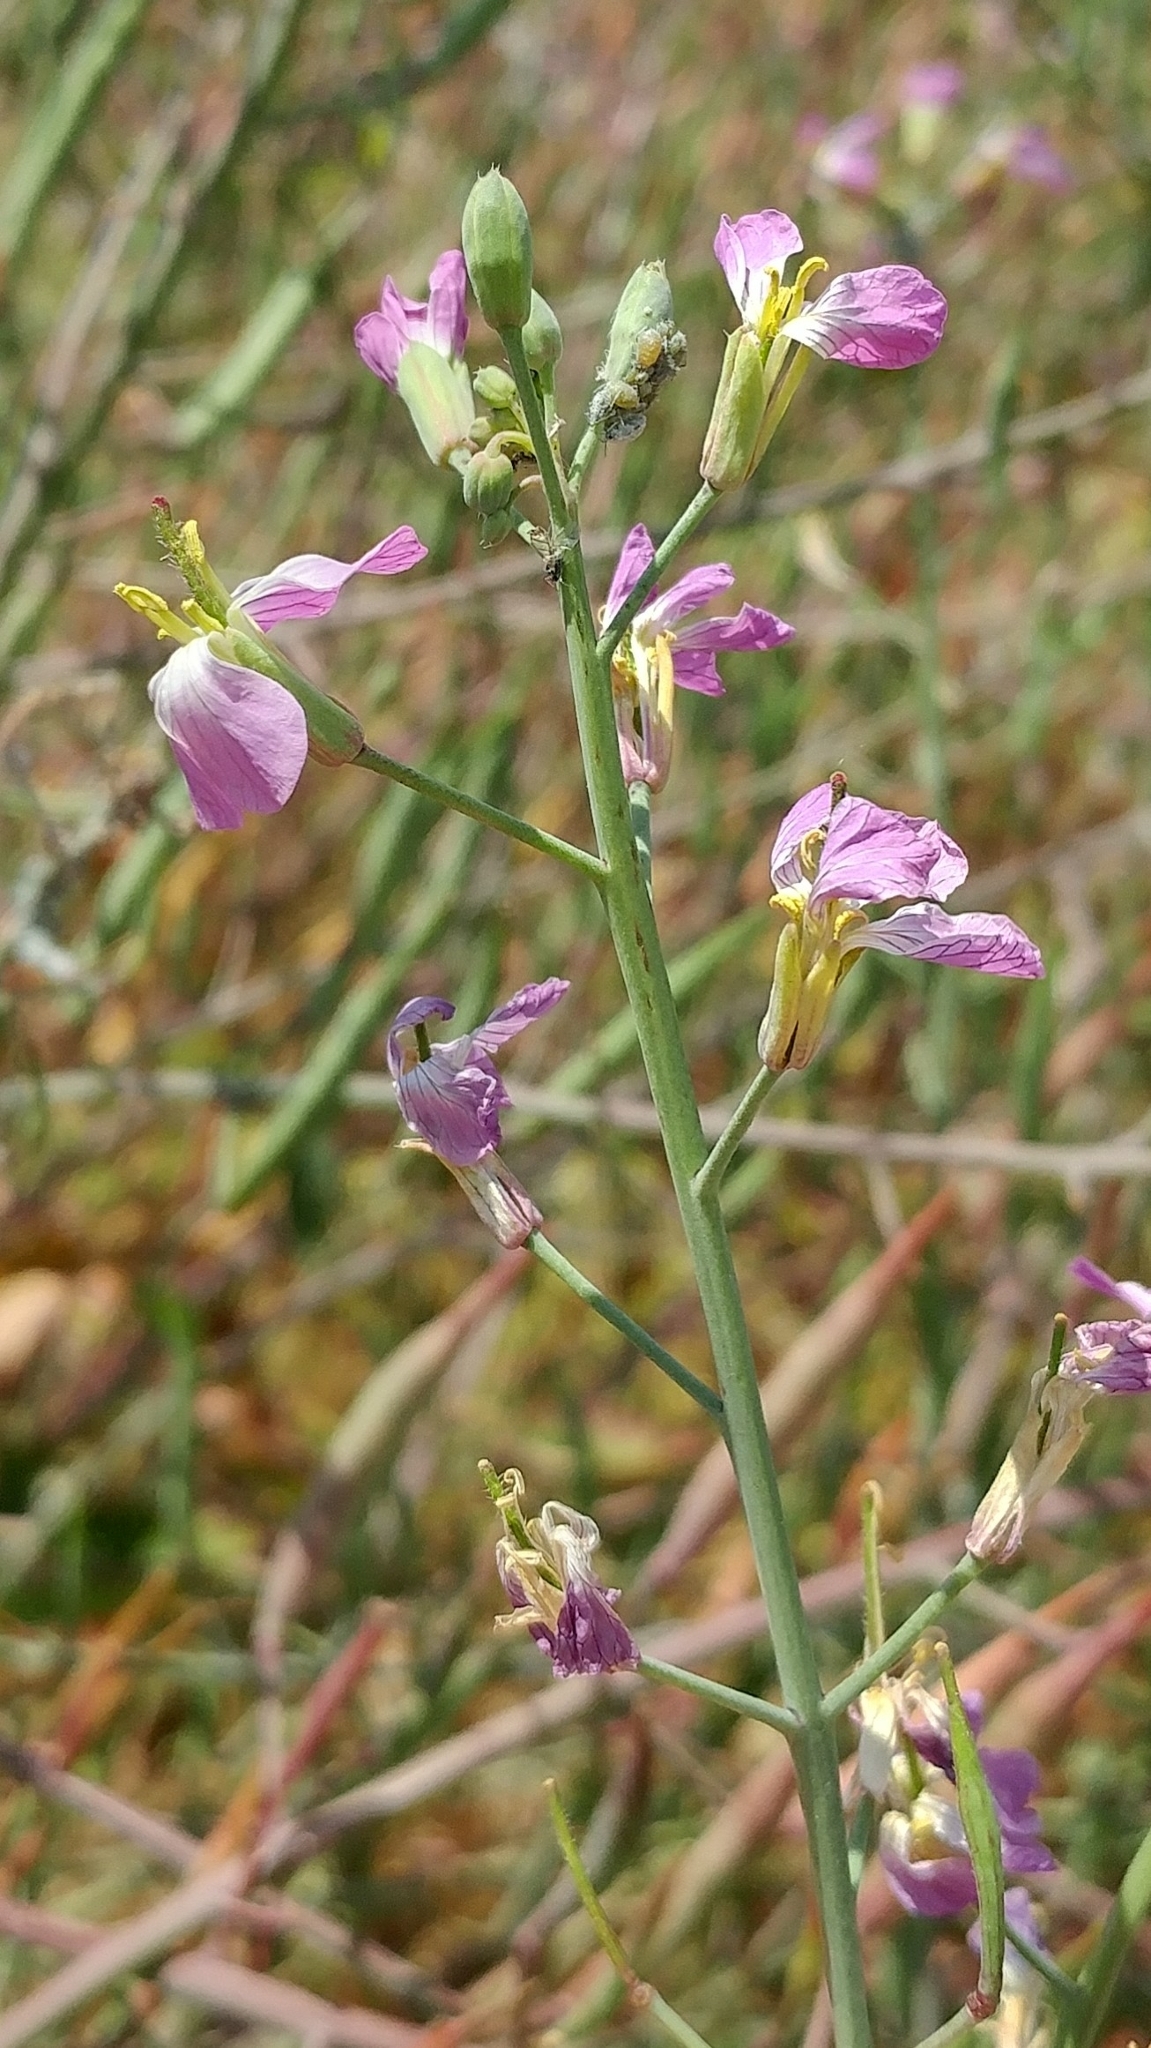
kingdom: Plantae
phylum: Tracheophyta
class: Magnoliopsida
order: Brassicales
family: Brassicaceae
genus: Raphanus
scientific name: Raphanus sativus
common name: Cultivated radish
